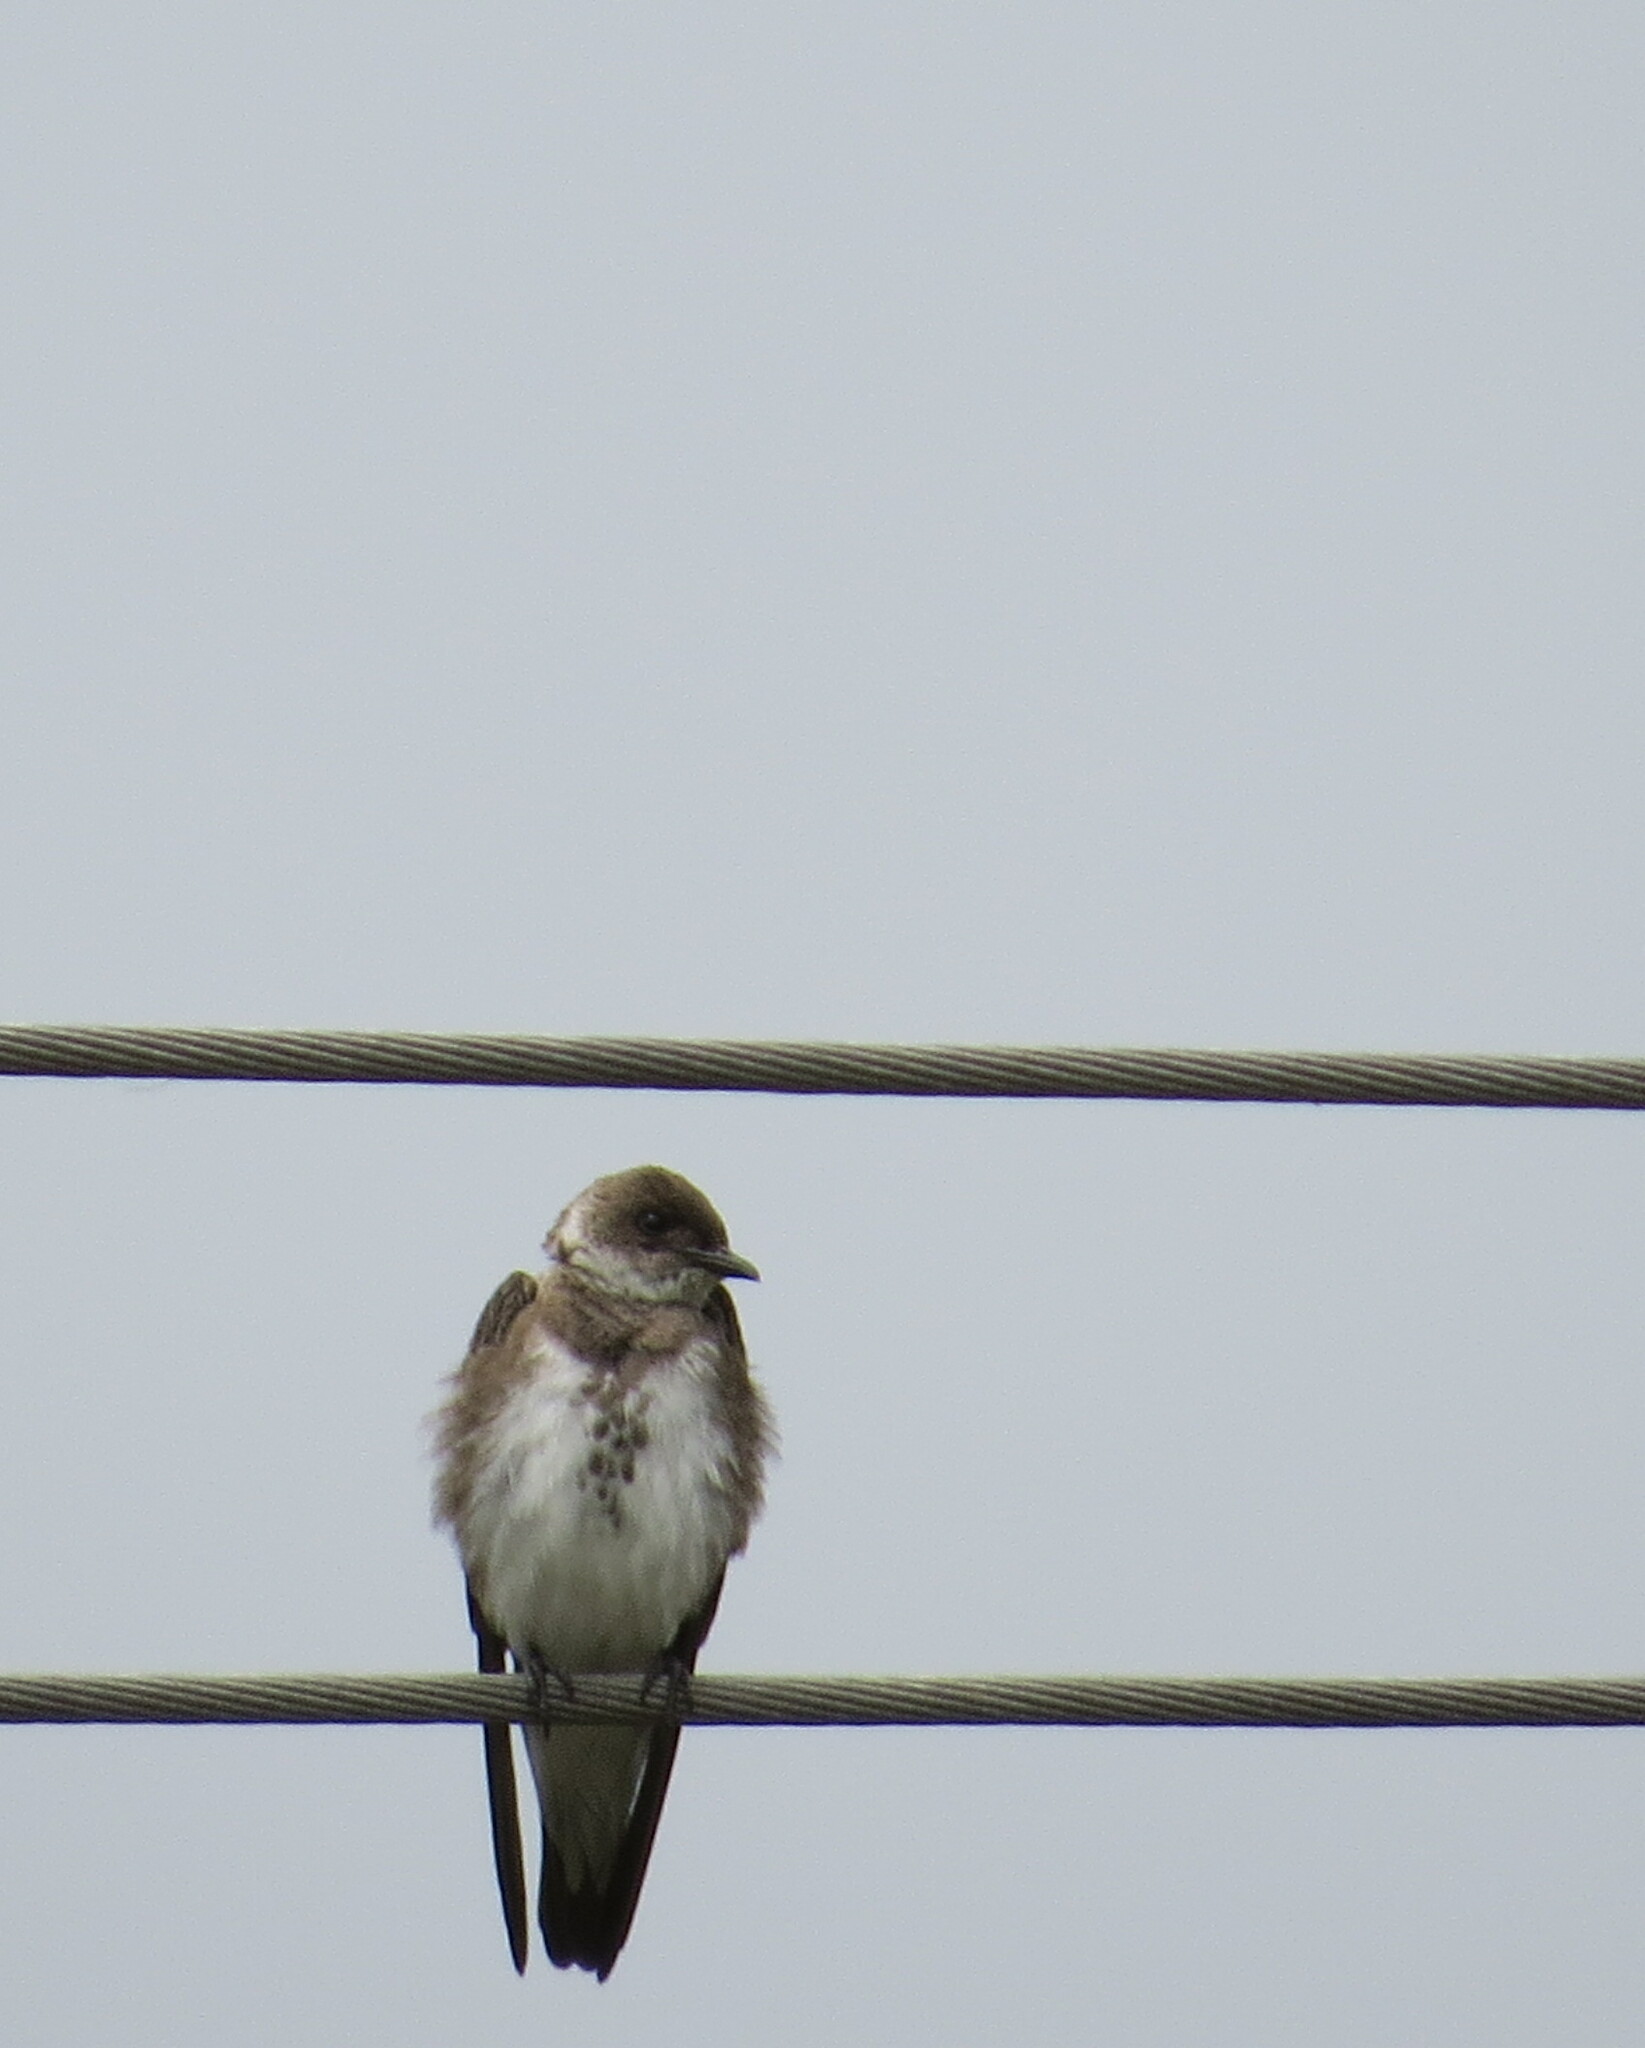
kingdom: Animalia
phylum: Chordata
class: Aves
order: Passeriformes
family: Hirundinidae
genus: Progne
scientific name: Progne tapera
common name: Brown-chested martin
